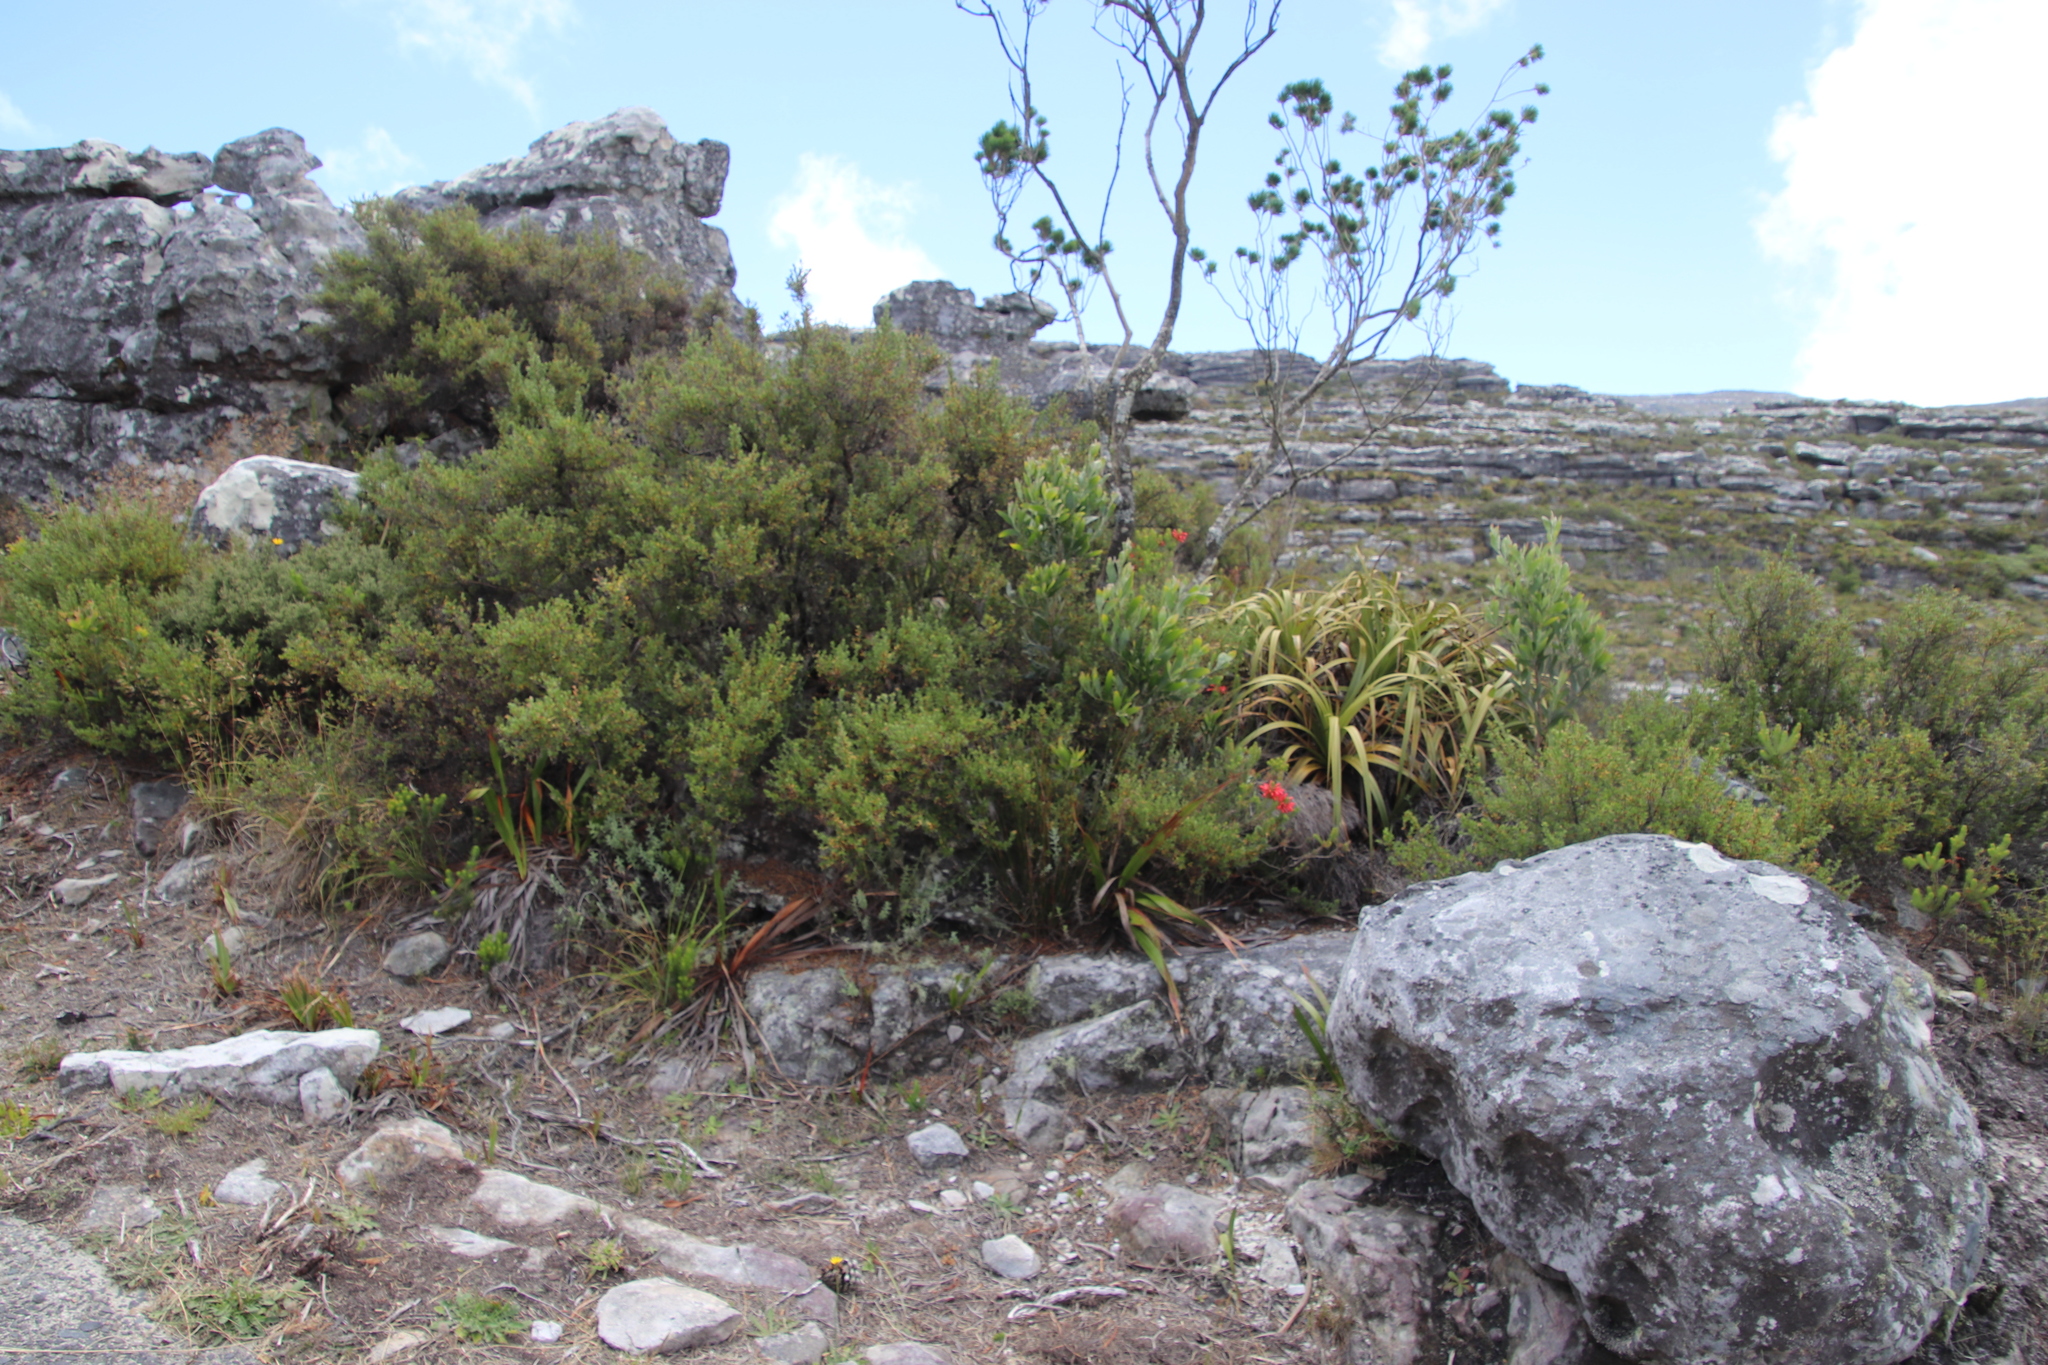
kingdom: Plantae
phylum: Tracheophyta
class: Magnoliopsida
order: Fabales
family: Fabaceae
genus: Acacia
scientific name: Acacia melanoxylon
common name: Blackwood
